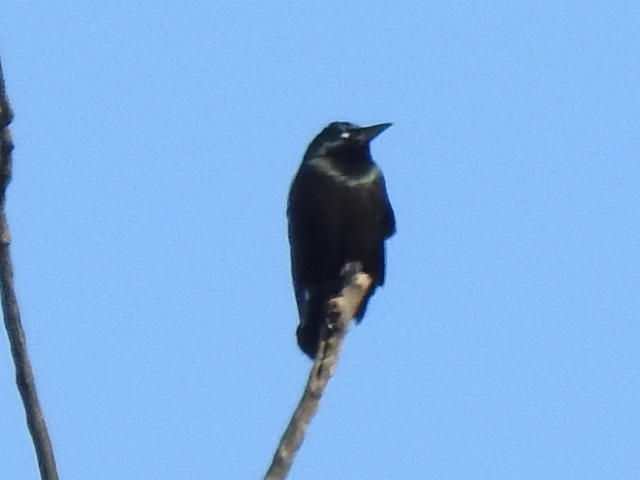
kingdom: Animalia
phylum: Chordata
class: Aves
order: Passeriformes
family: Icteridae
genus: Quiscalus
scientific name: Quiscalus quiscula
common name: Common grackle
